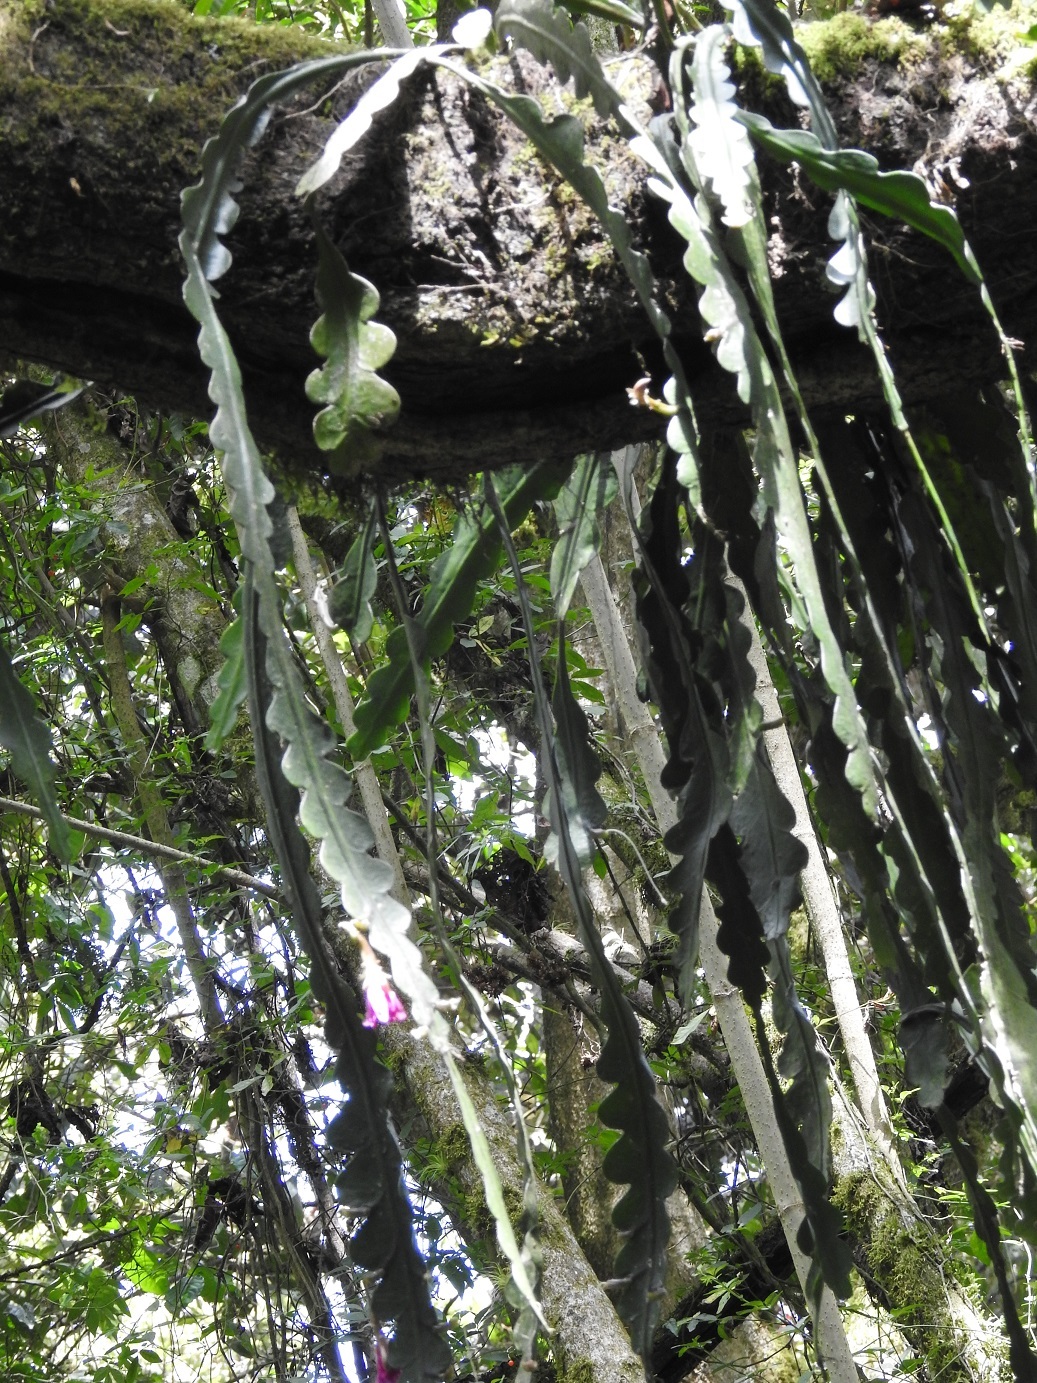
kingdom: Plantae
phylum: Tracheophyta
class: Magnoliopsida
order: Caryophyllales
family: Cactaceae
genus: Disocactus
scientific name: Disocactus macdougallii
